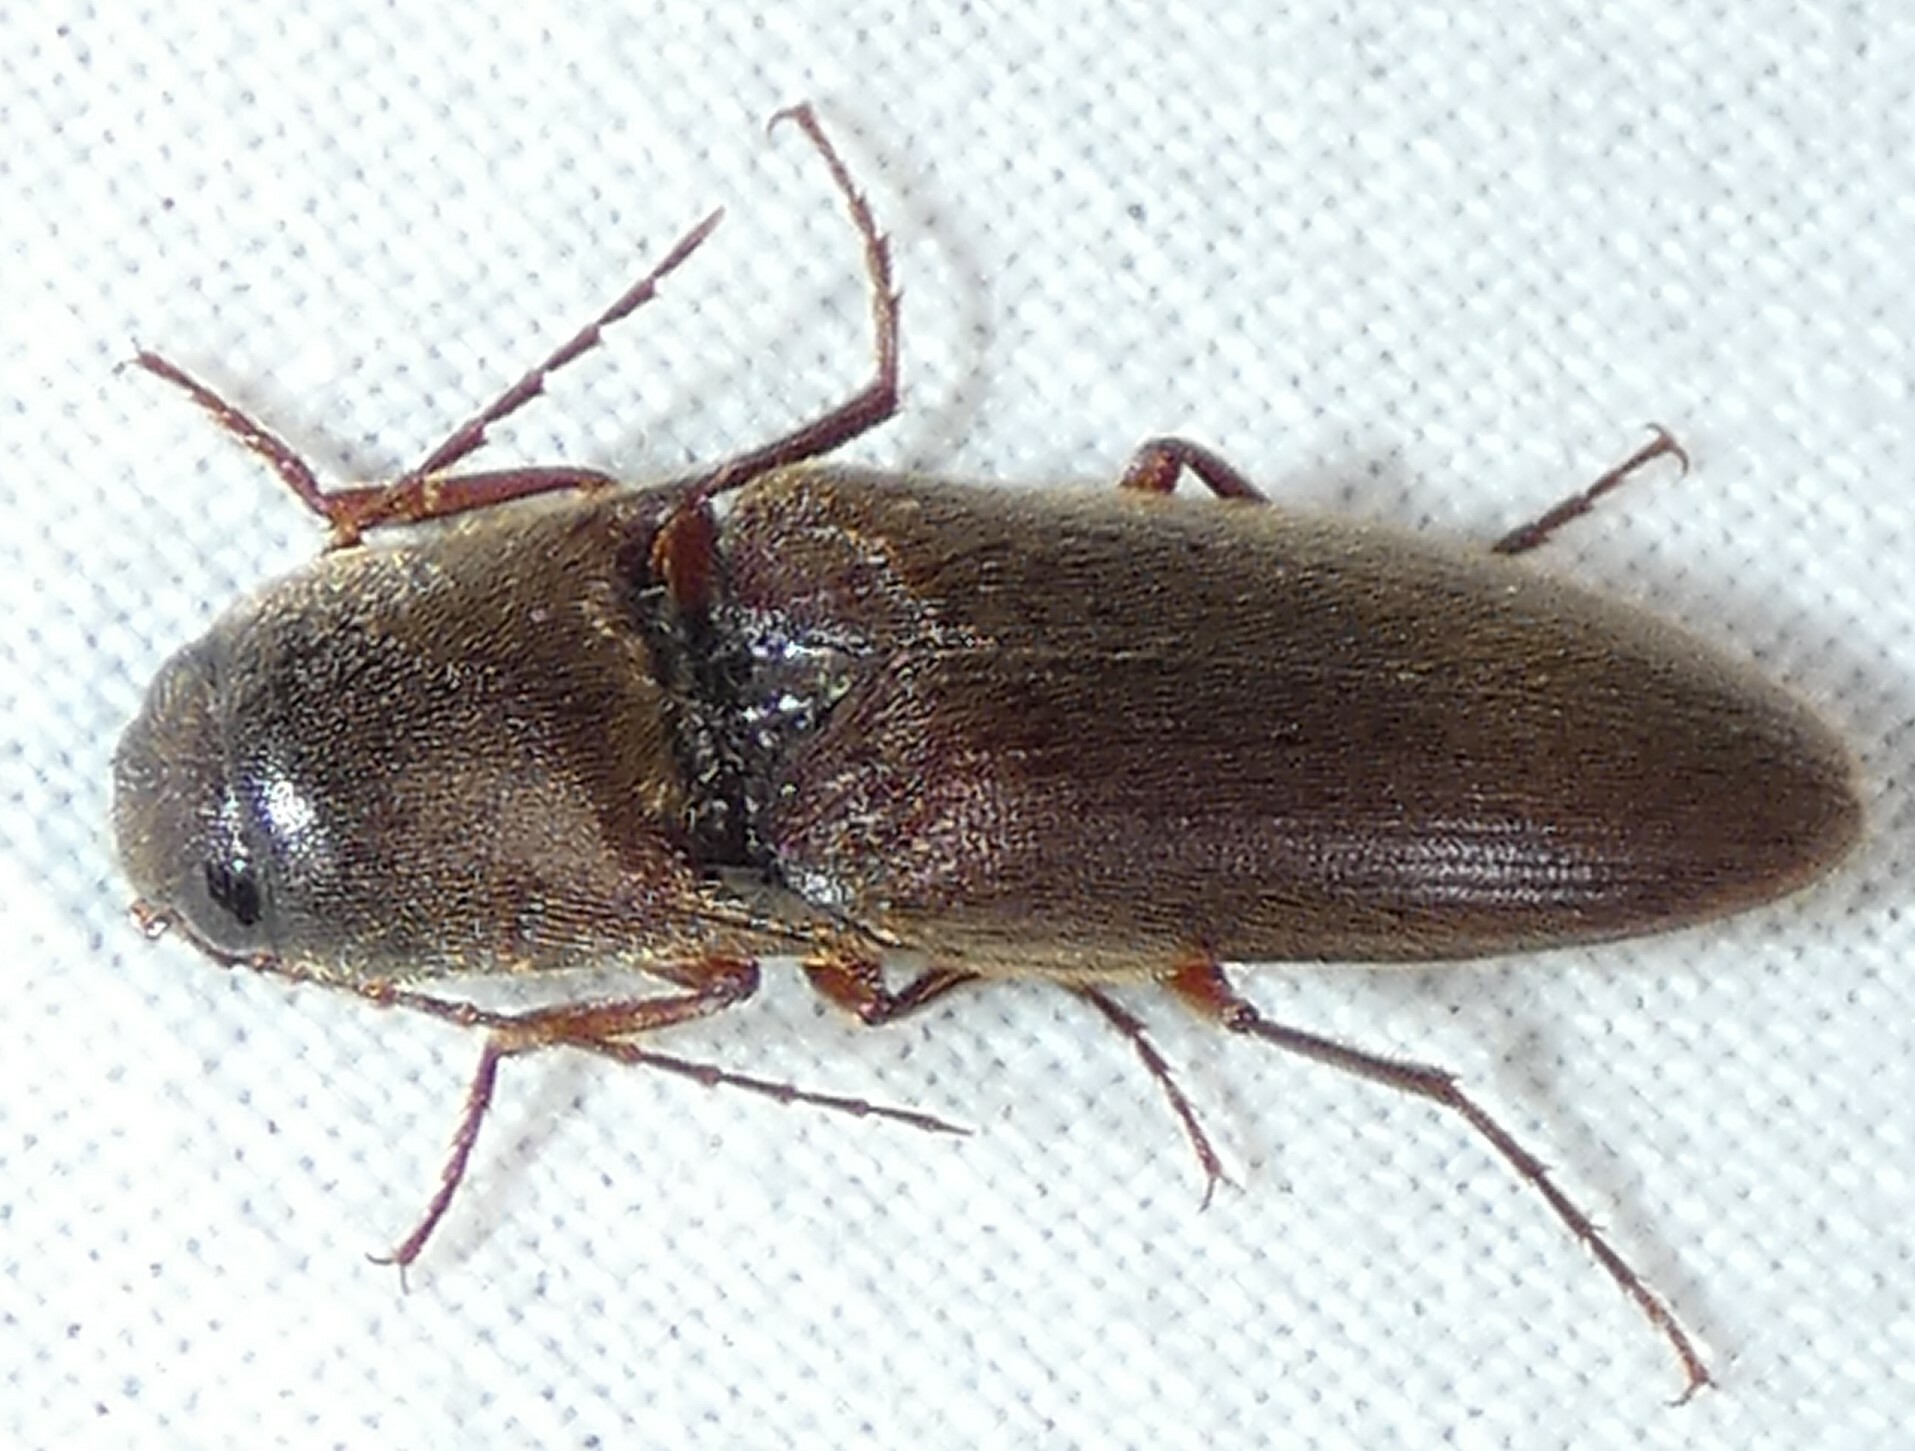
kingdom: Animalia
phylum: Arthropoda
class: Insecta
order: Coleoptera
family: Elateridae
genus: Diplostethus
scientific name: Diplostethus
